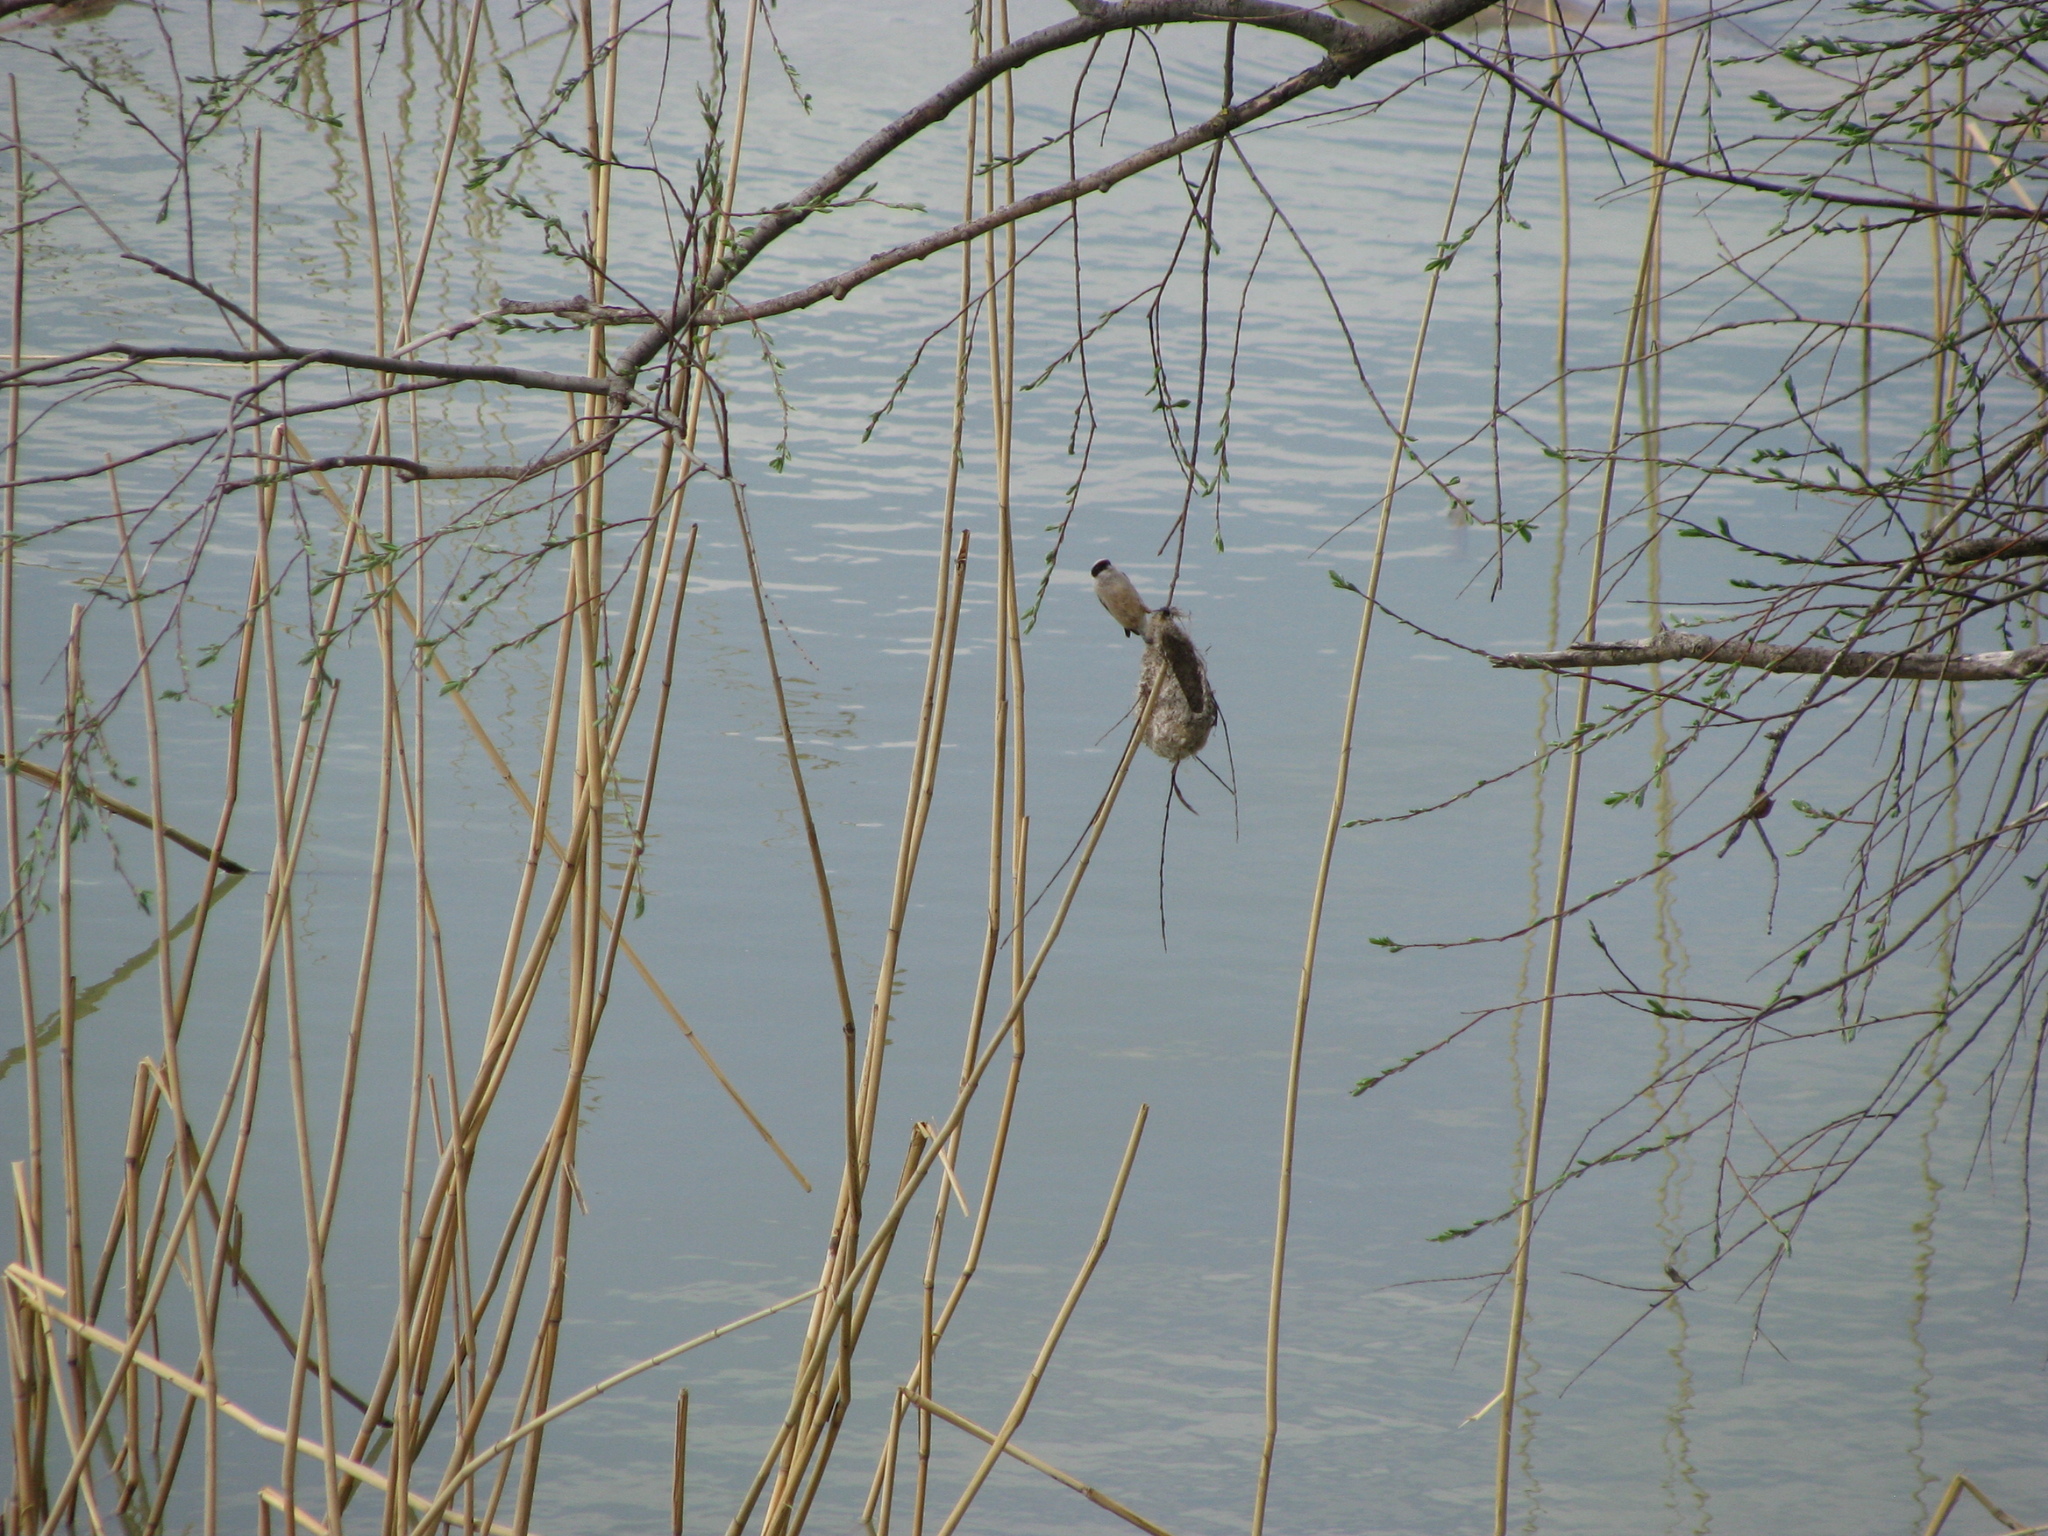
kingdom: Animalia
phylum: Chordata
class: Aves
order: Passeriformes
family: Remizidae
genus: Remiz
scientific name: Remiz pendulinus
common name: Eurasian penduline tit
